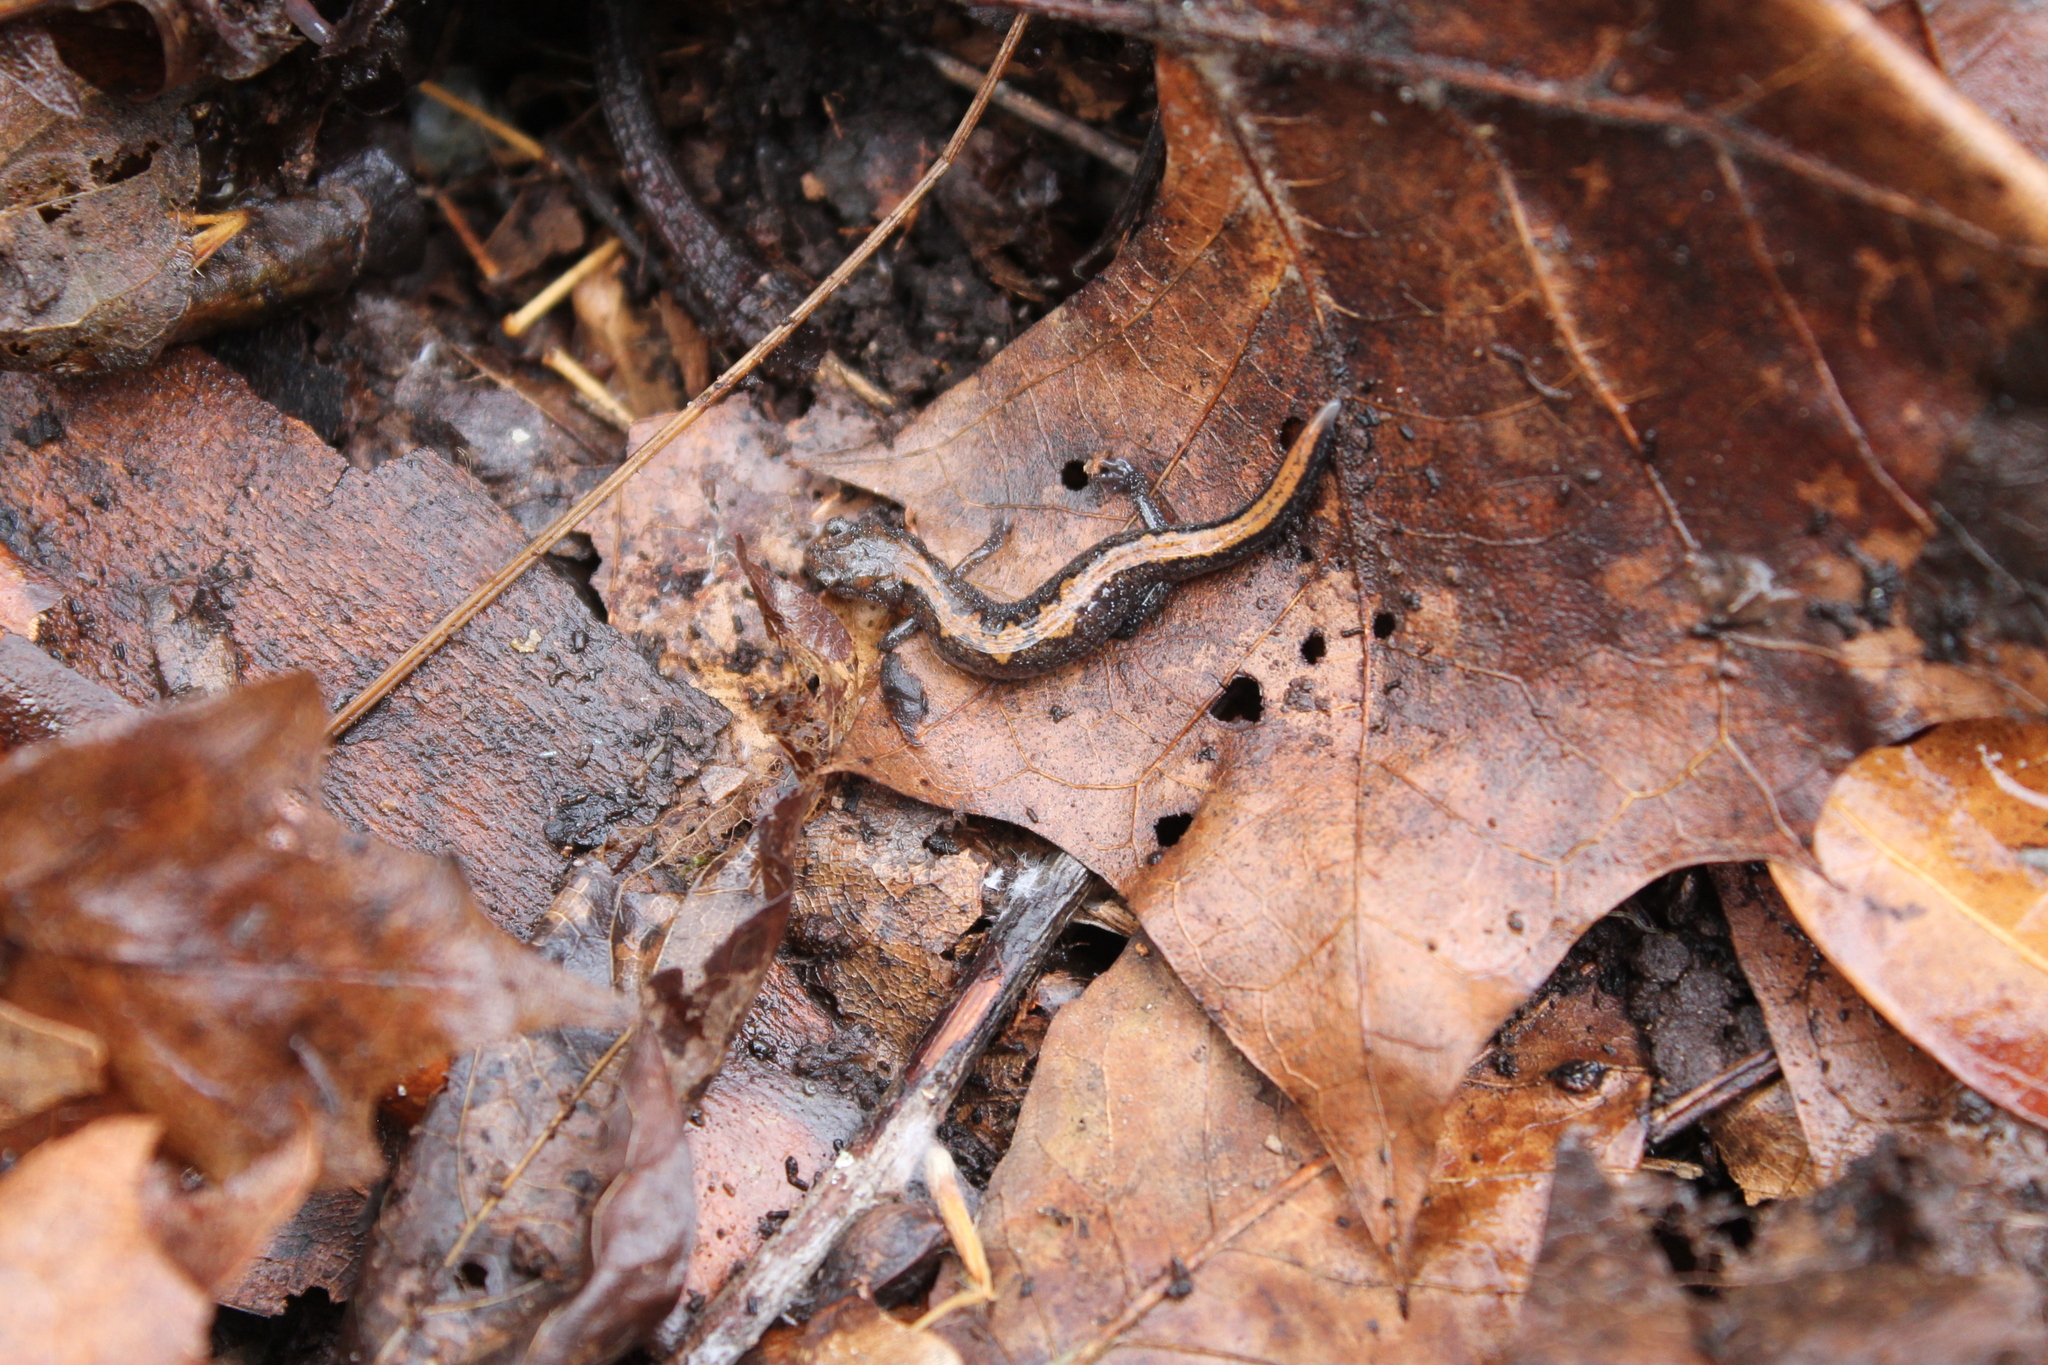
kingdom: Animalia
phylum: Chordata
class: Amphibia
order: Caudata
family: Plethodontidae
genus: Plethodon
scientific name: Plethodon dorsalis
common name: Northern zigzag salamander
